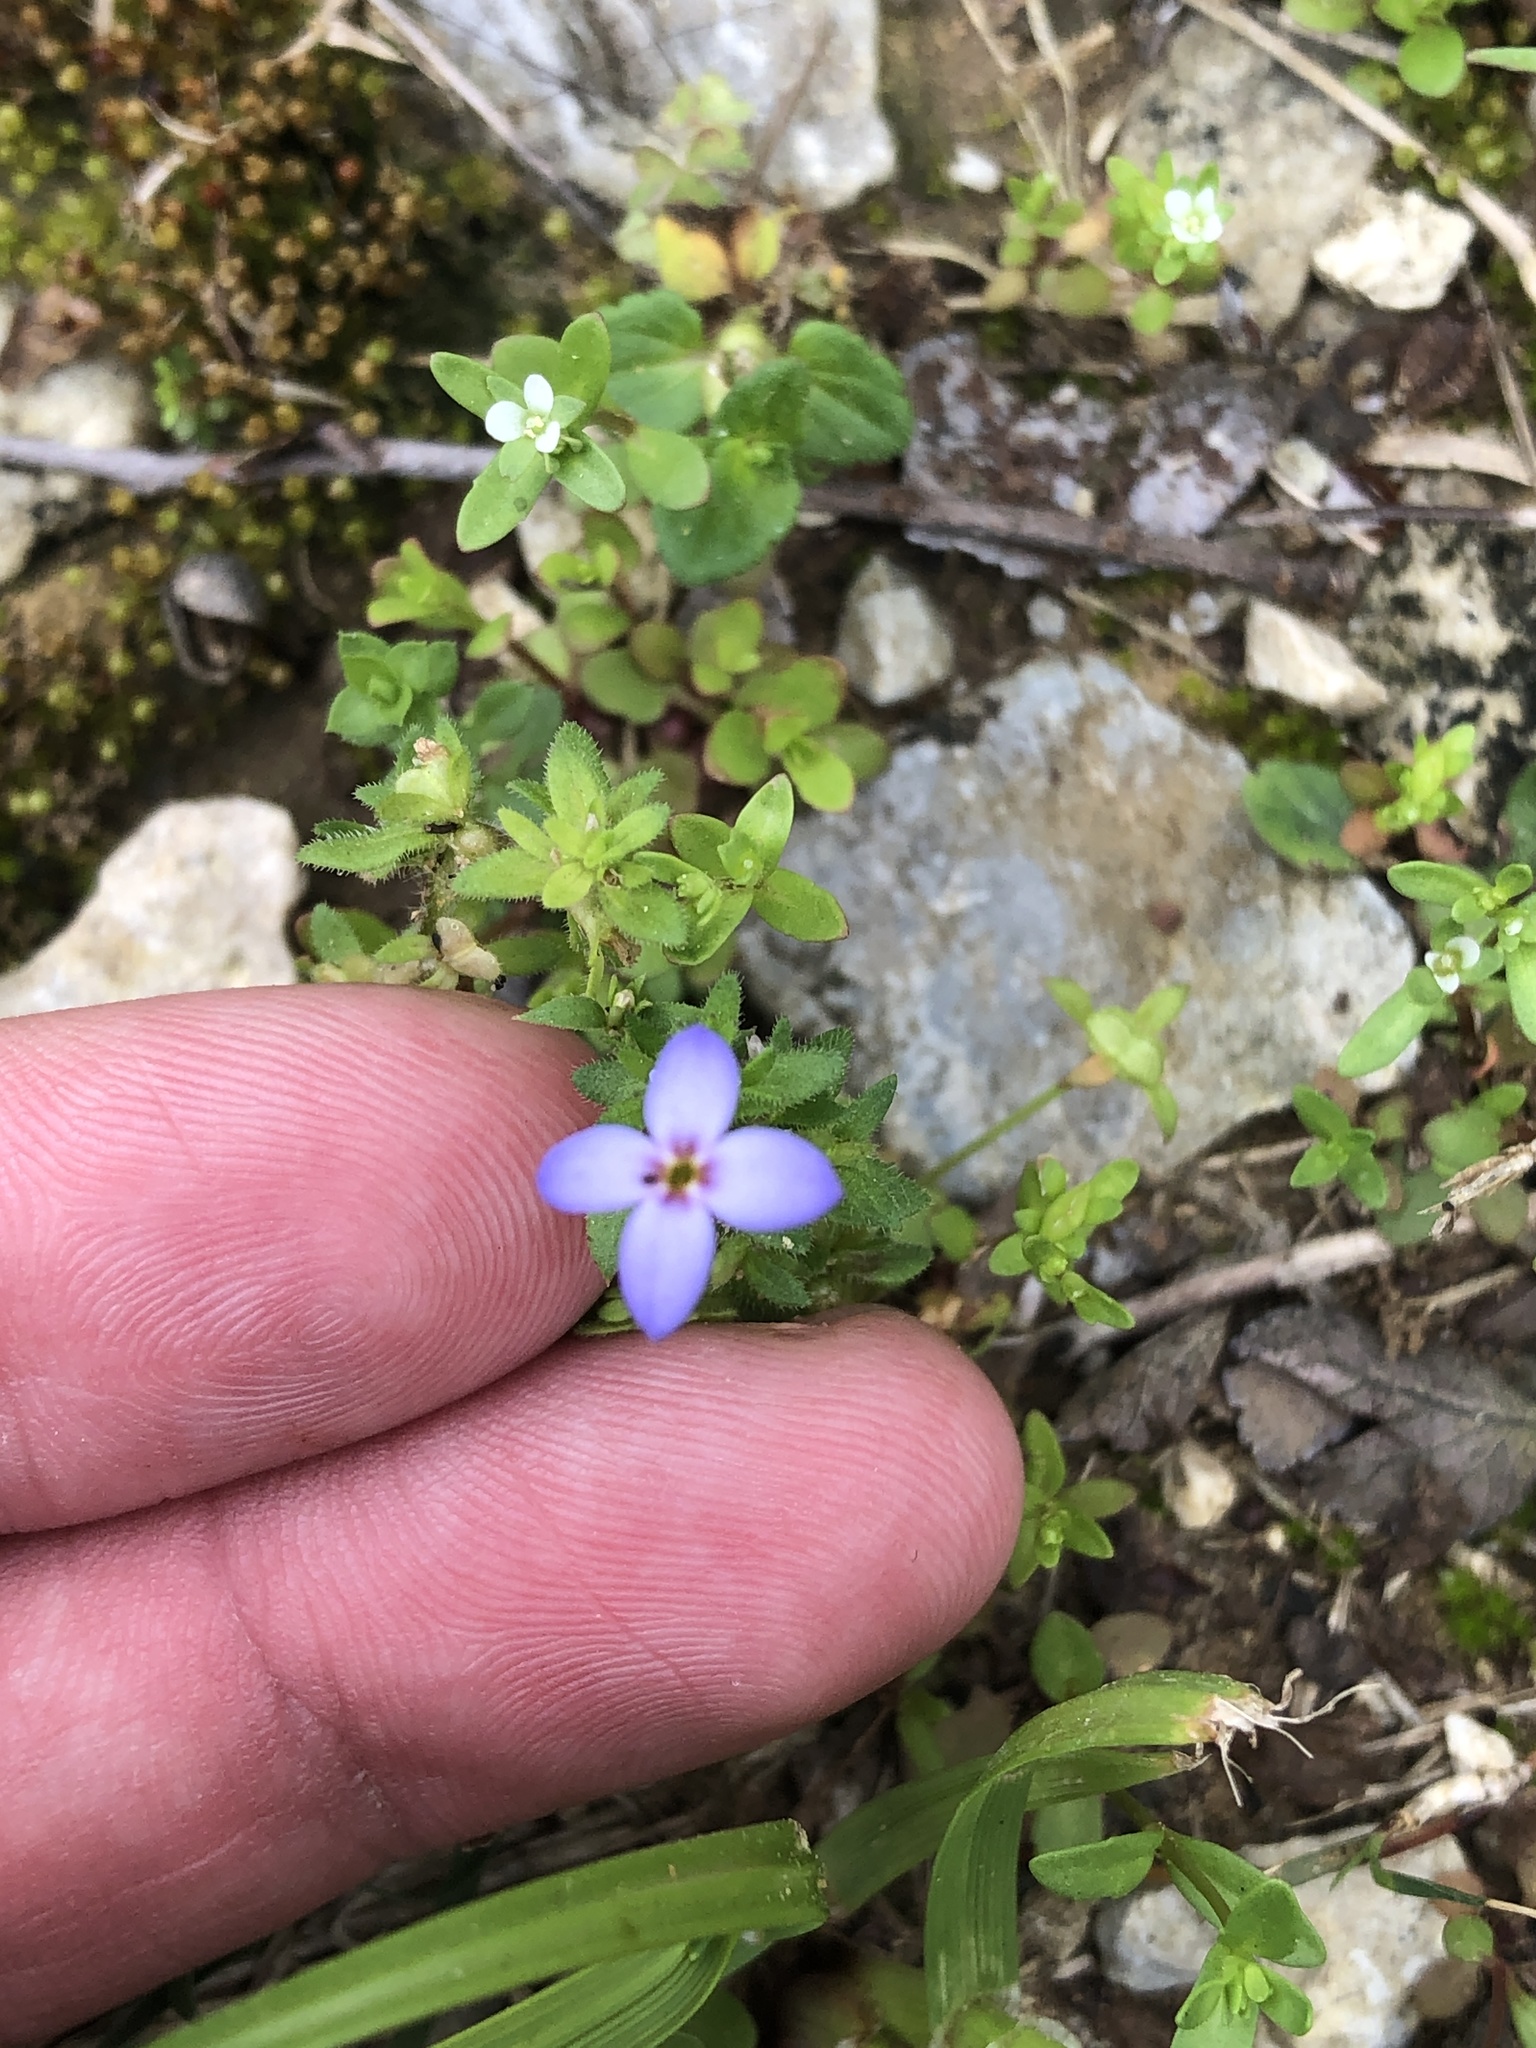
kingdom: Plantae
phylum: Tracheophyta
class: Magnoliopsida
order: Gentianales
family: Rubiaceae
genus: Houstonia
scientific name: Houstonia pusilla
